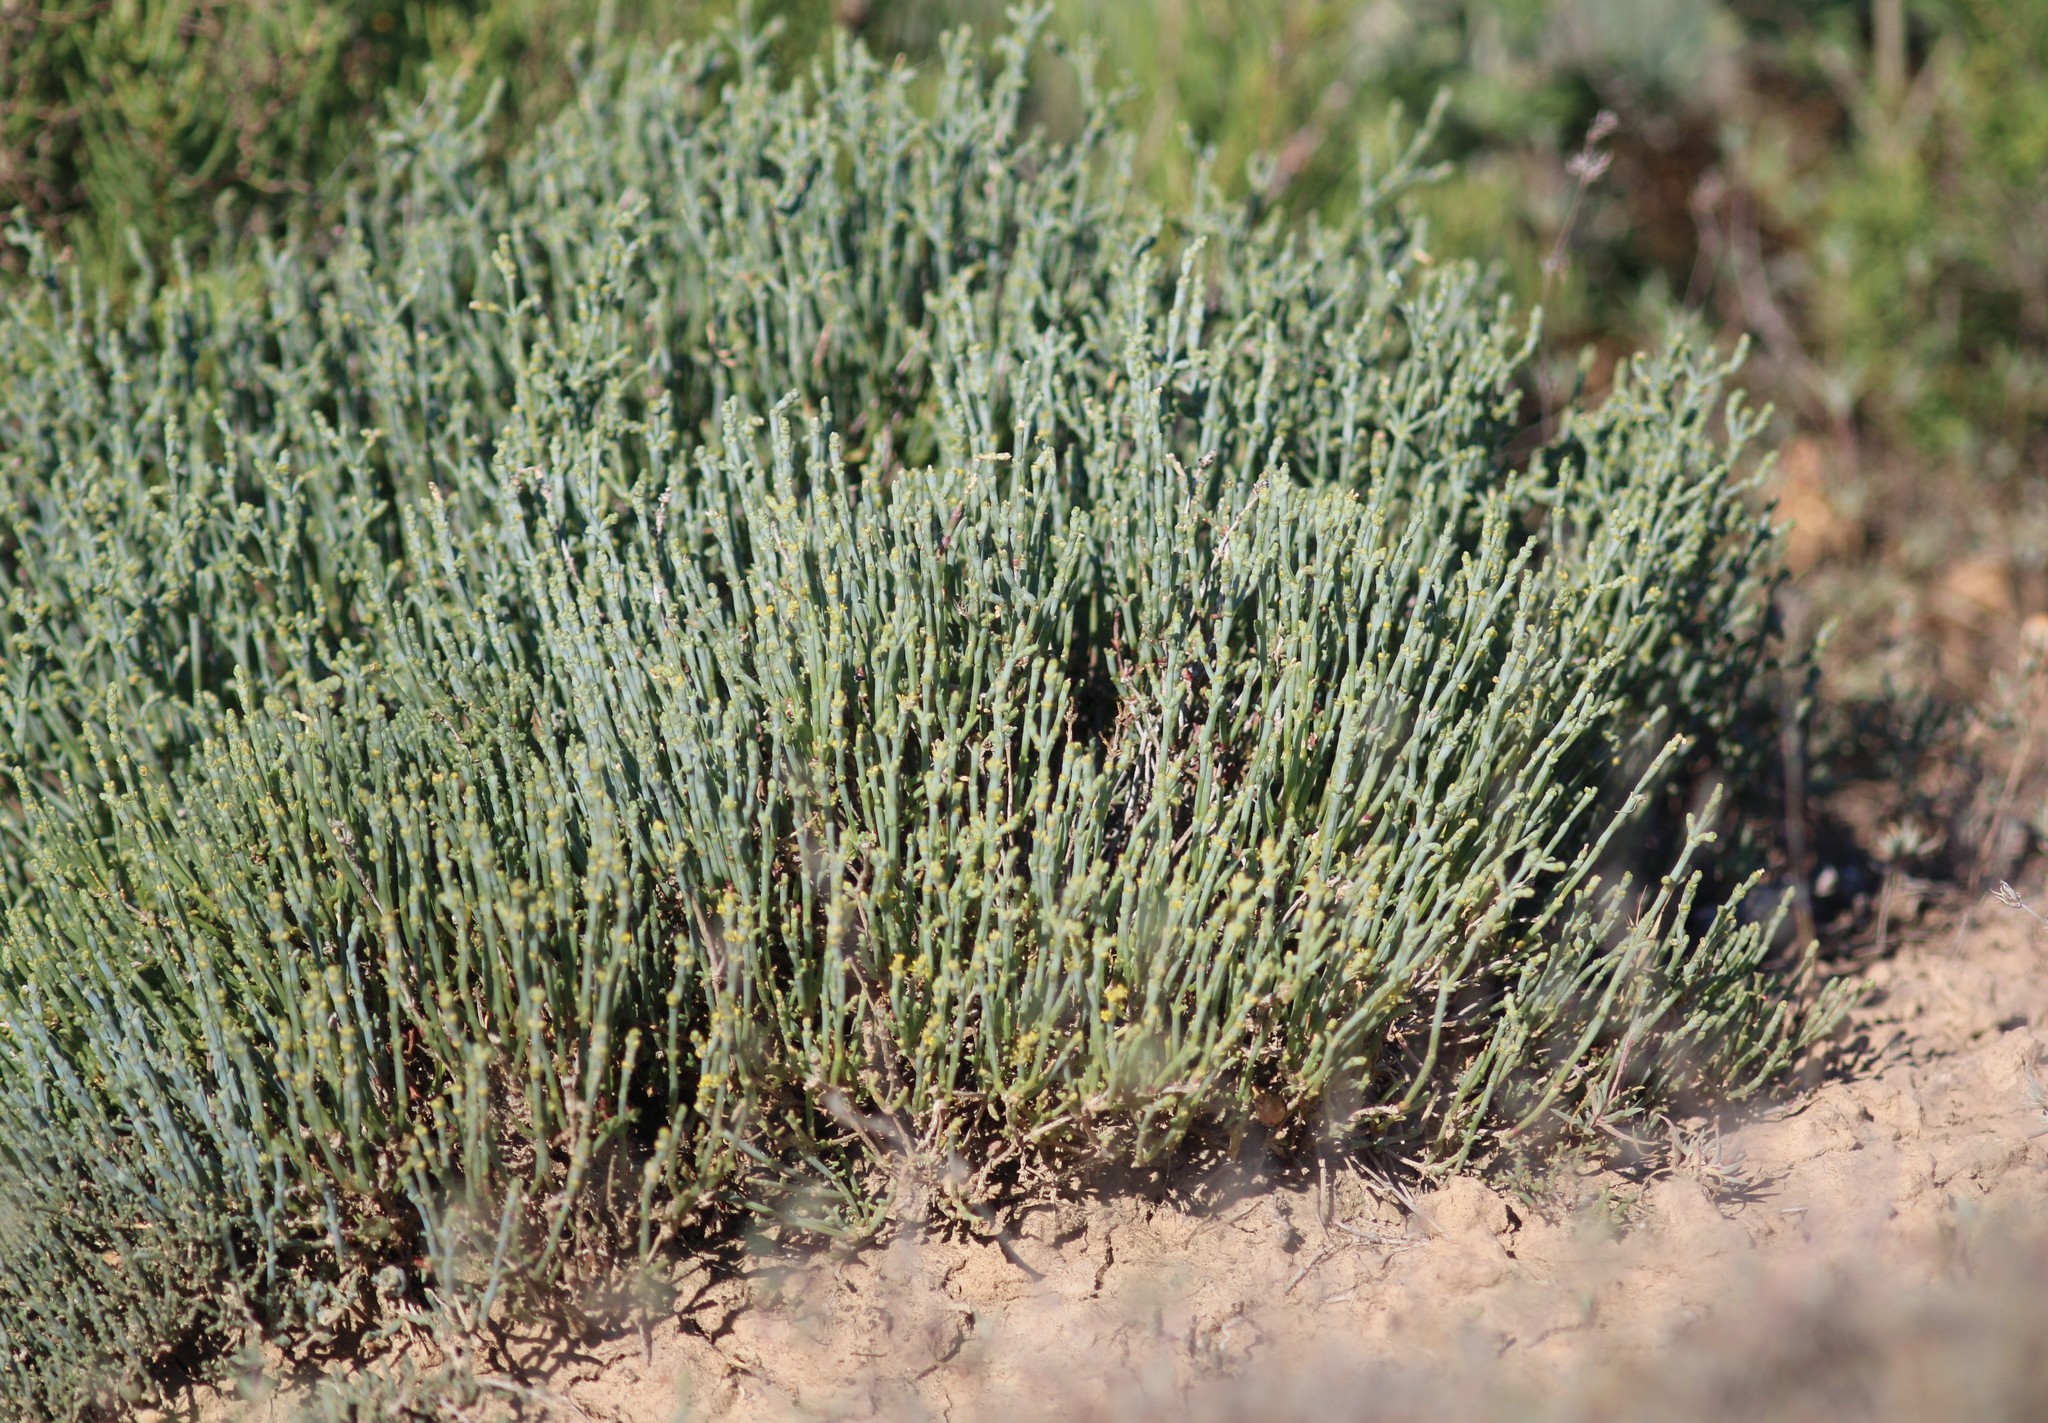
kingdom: Plantae
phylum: Tracheophyta
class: Magnoliopsida
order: Caryophyllales
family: Amaranthaceae
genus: Anabasis
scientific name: Anabasis salsa
